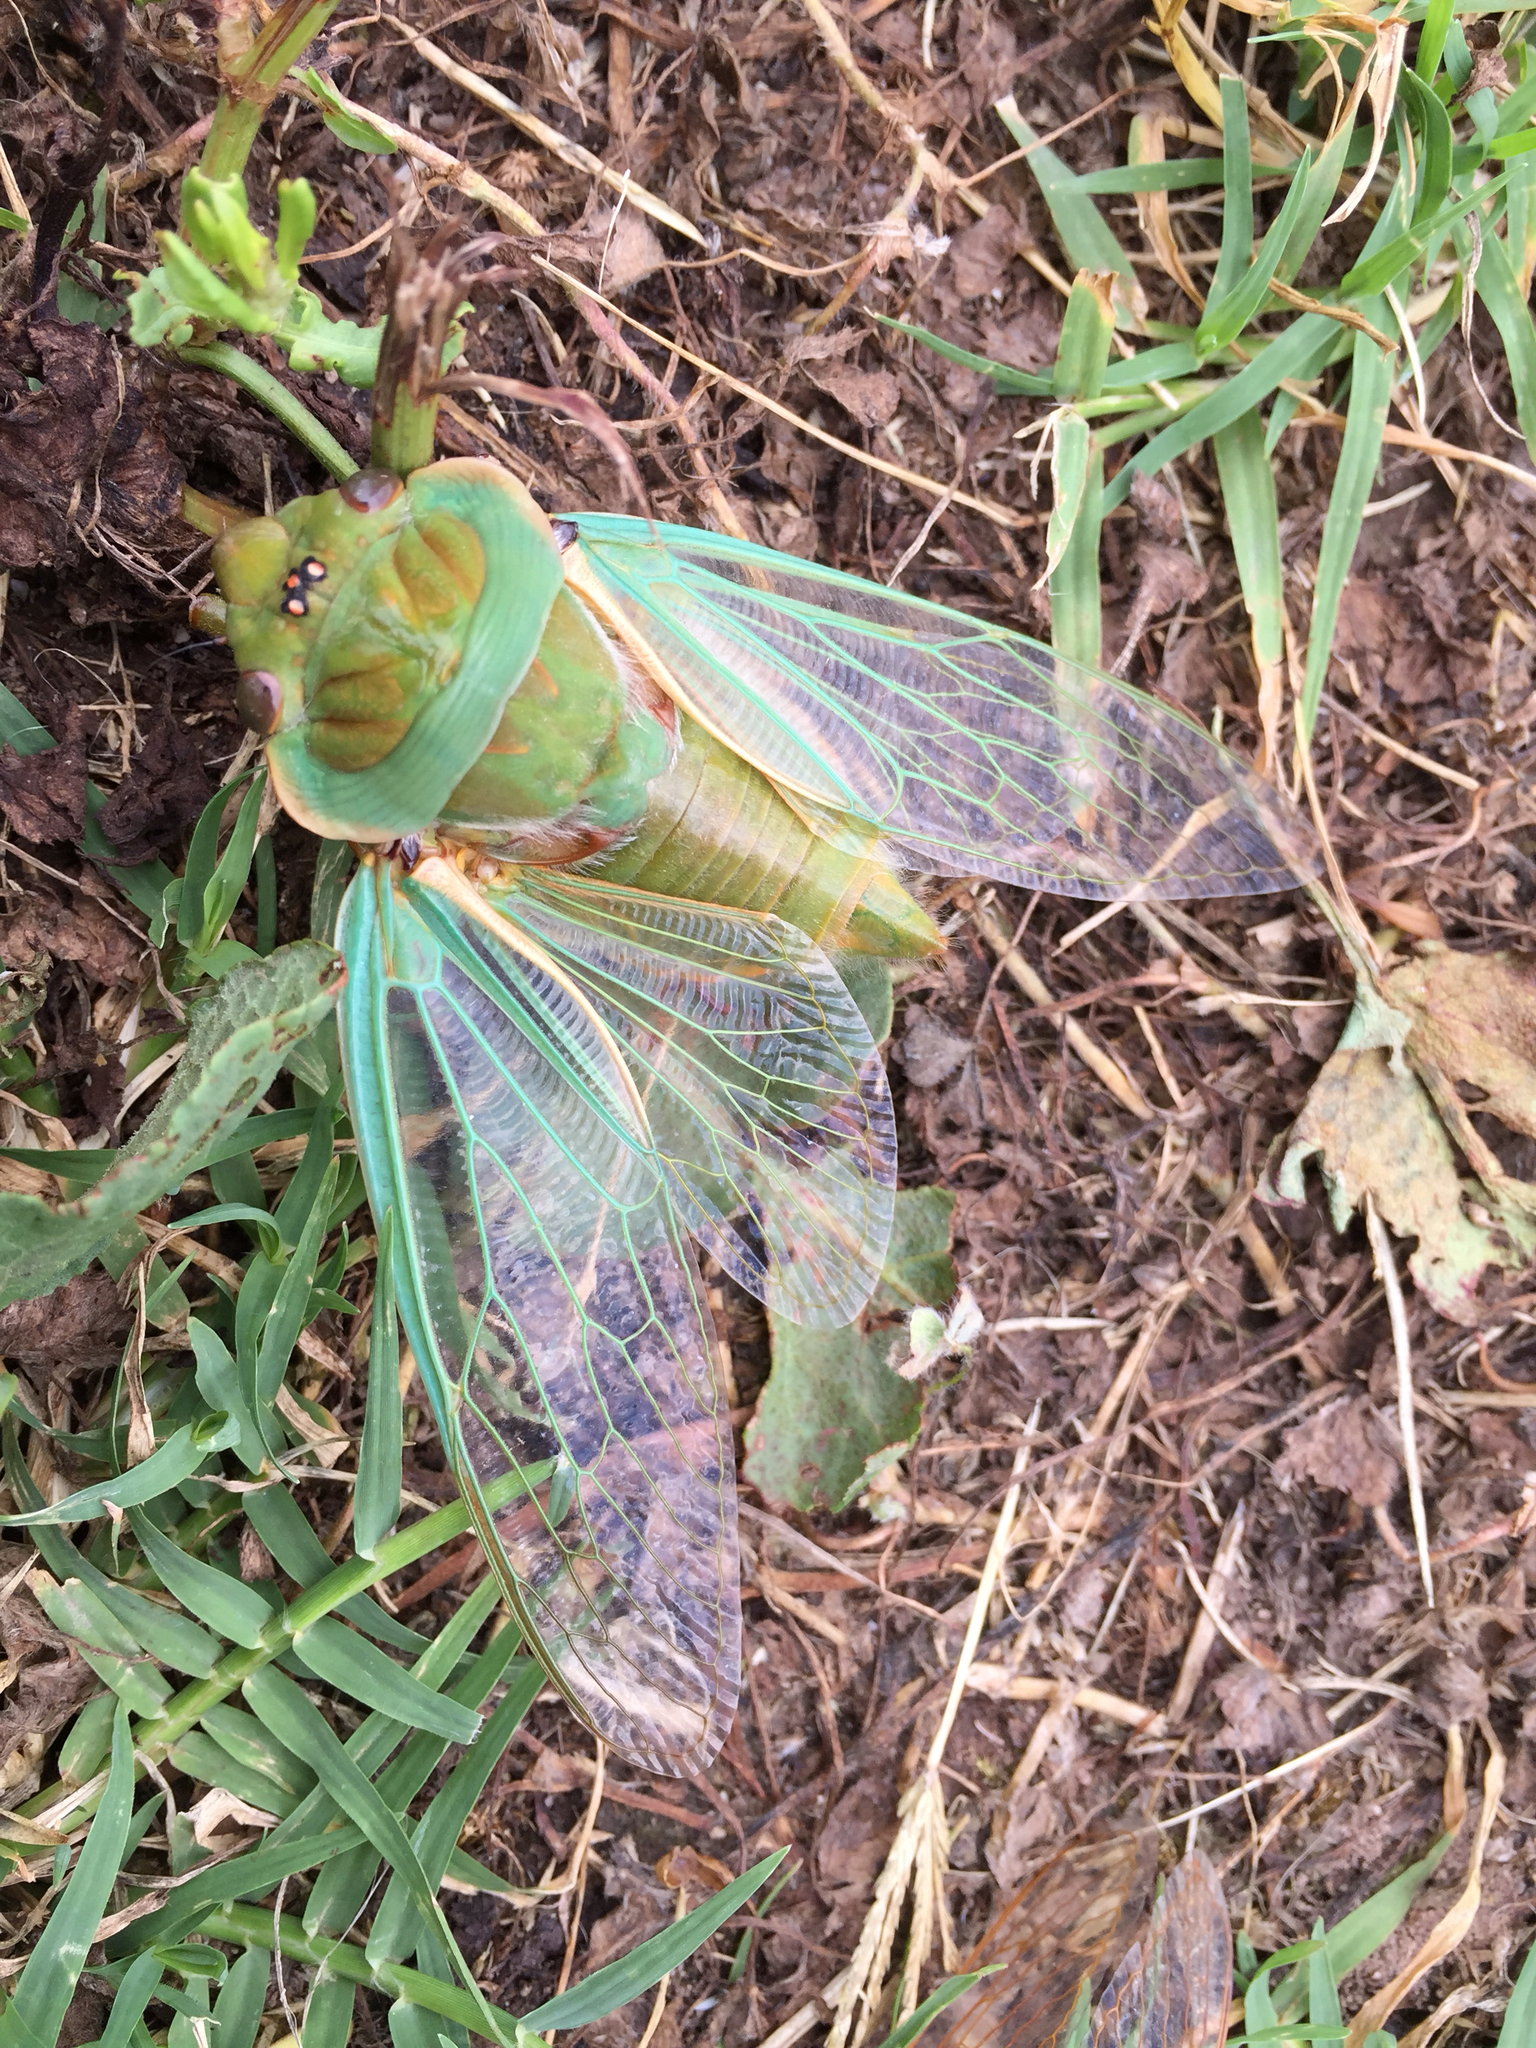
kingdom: Animalia
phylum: Arthropoda
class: Insecta
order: Hemiptera
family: Cicadidae
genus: Cyclochila
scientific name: Cyclochila australasiae
